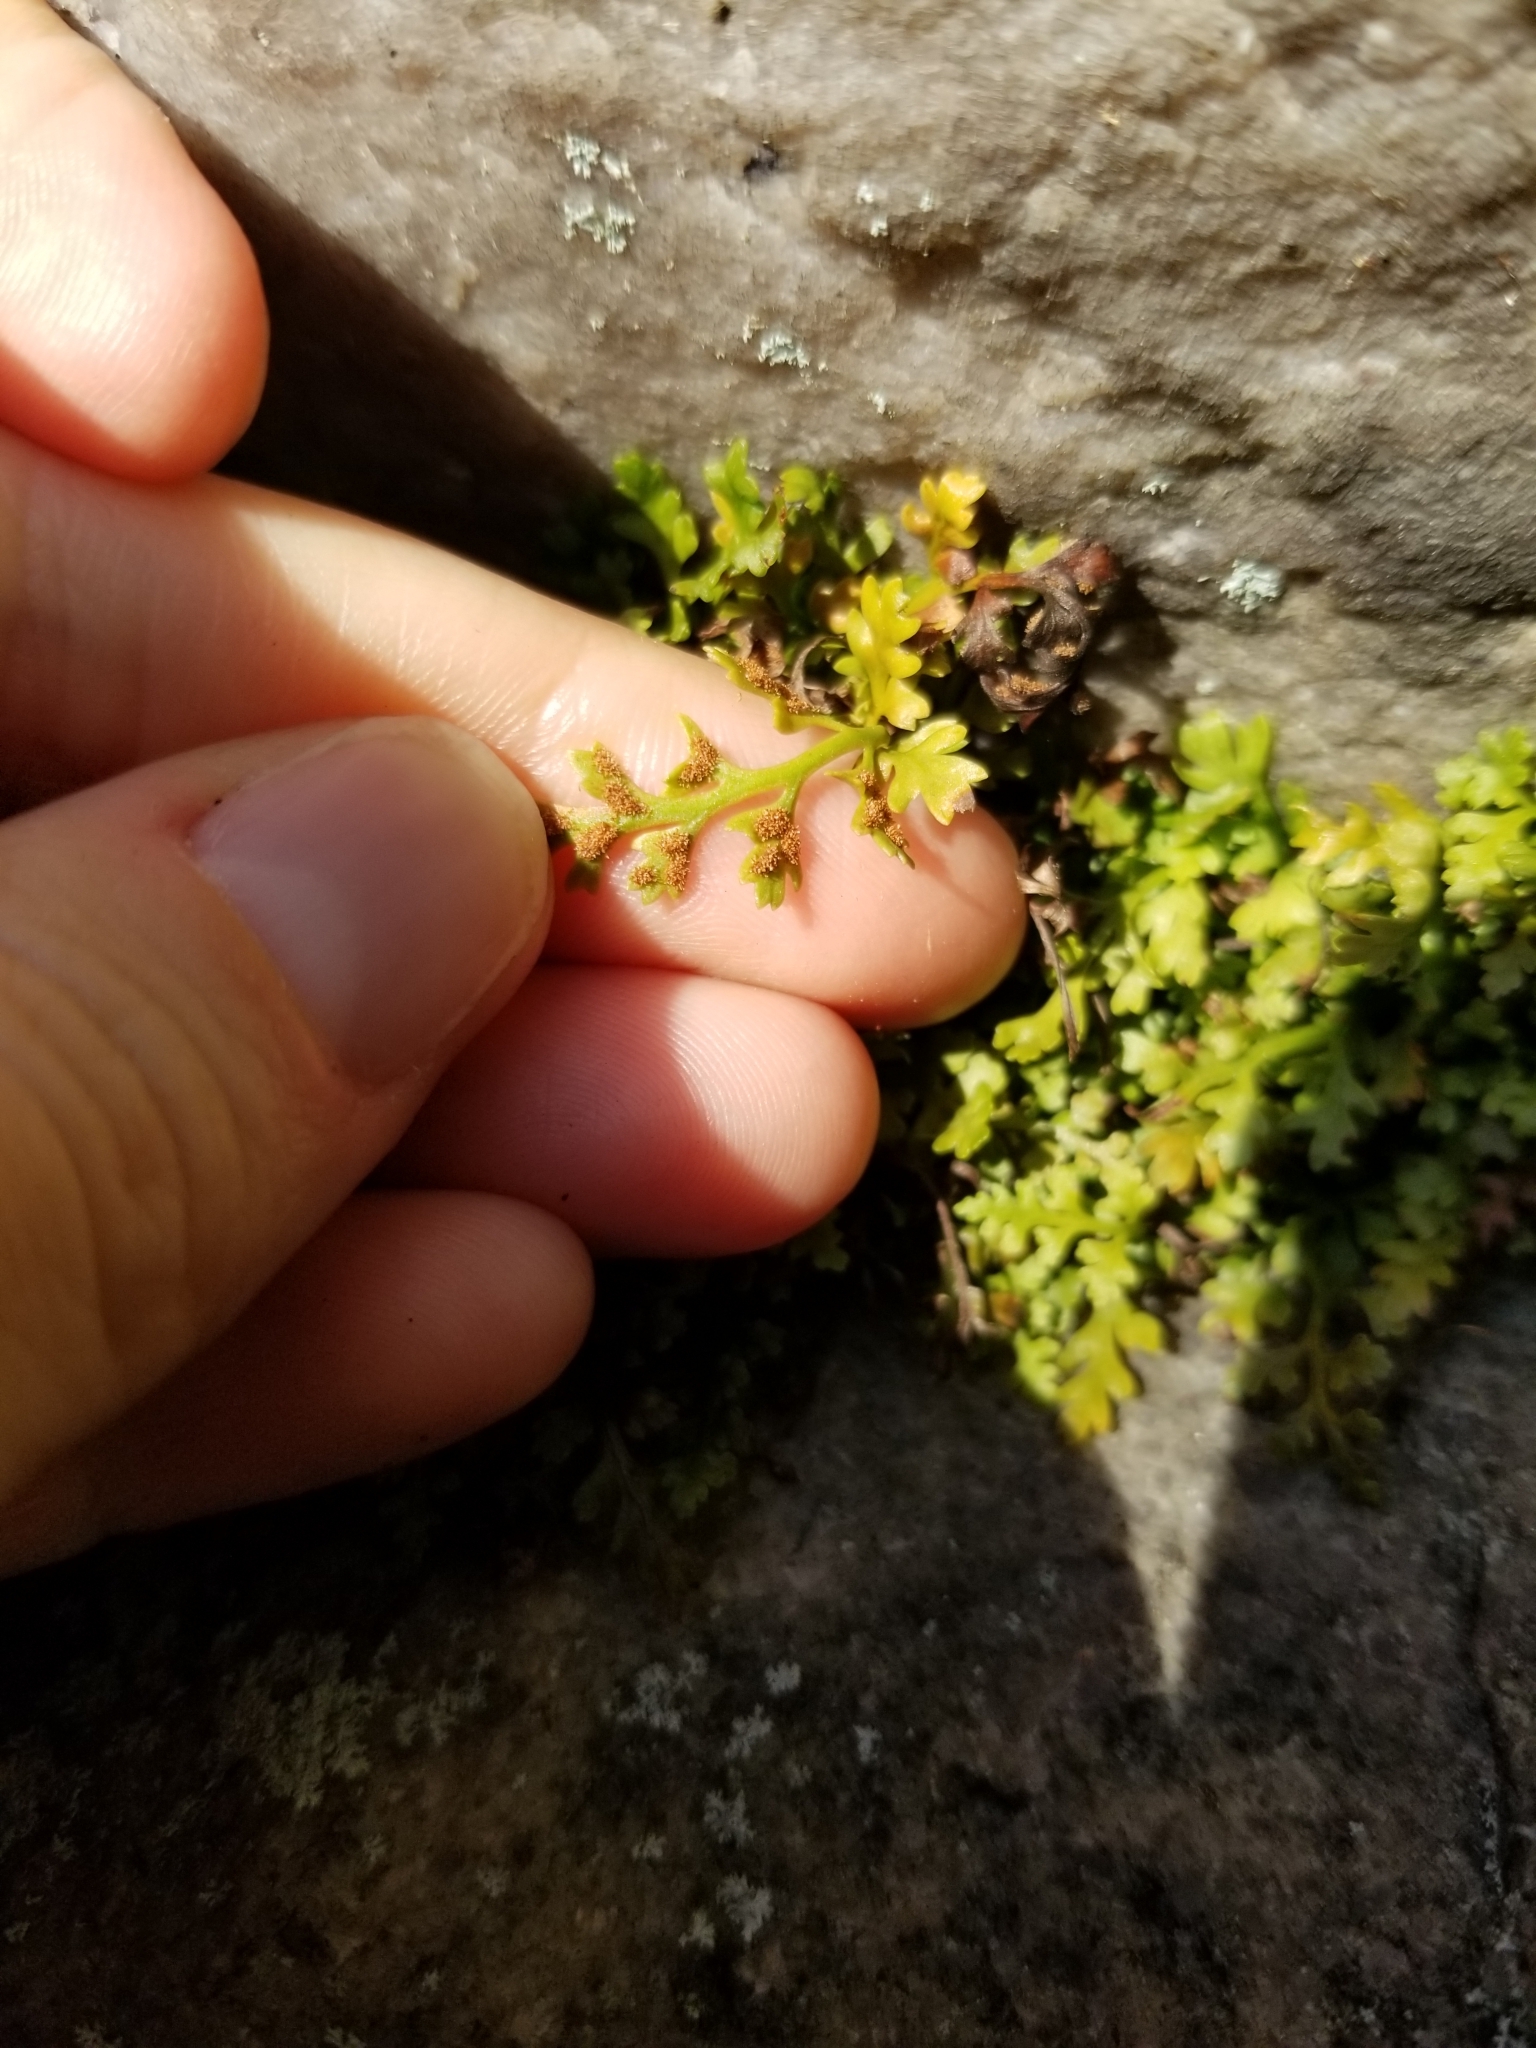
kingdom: Plantae
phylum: Tracheophyta
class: Polypodiopsida
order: Polypodiales
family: Aspleniaceae
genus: Asplenium
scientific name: Asplenium montanum
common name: Mountain spleenwort
